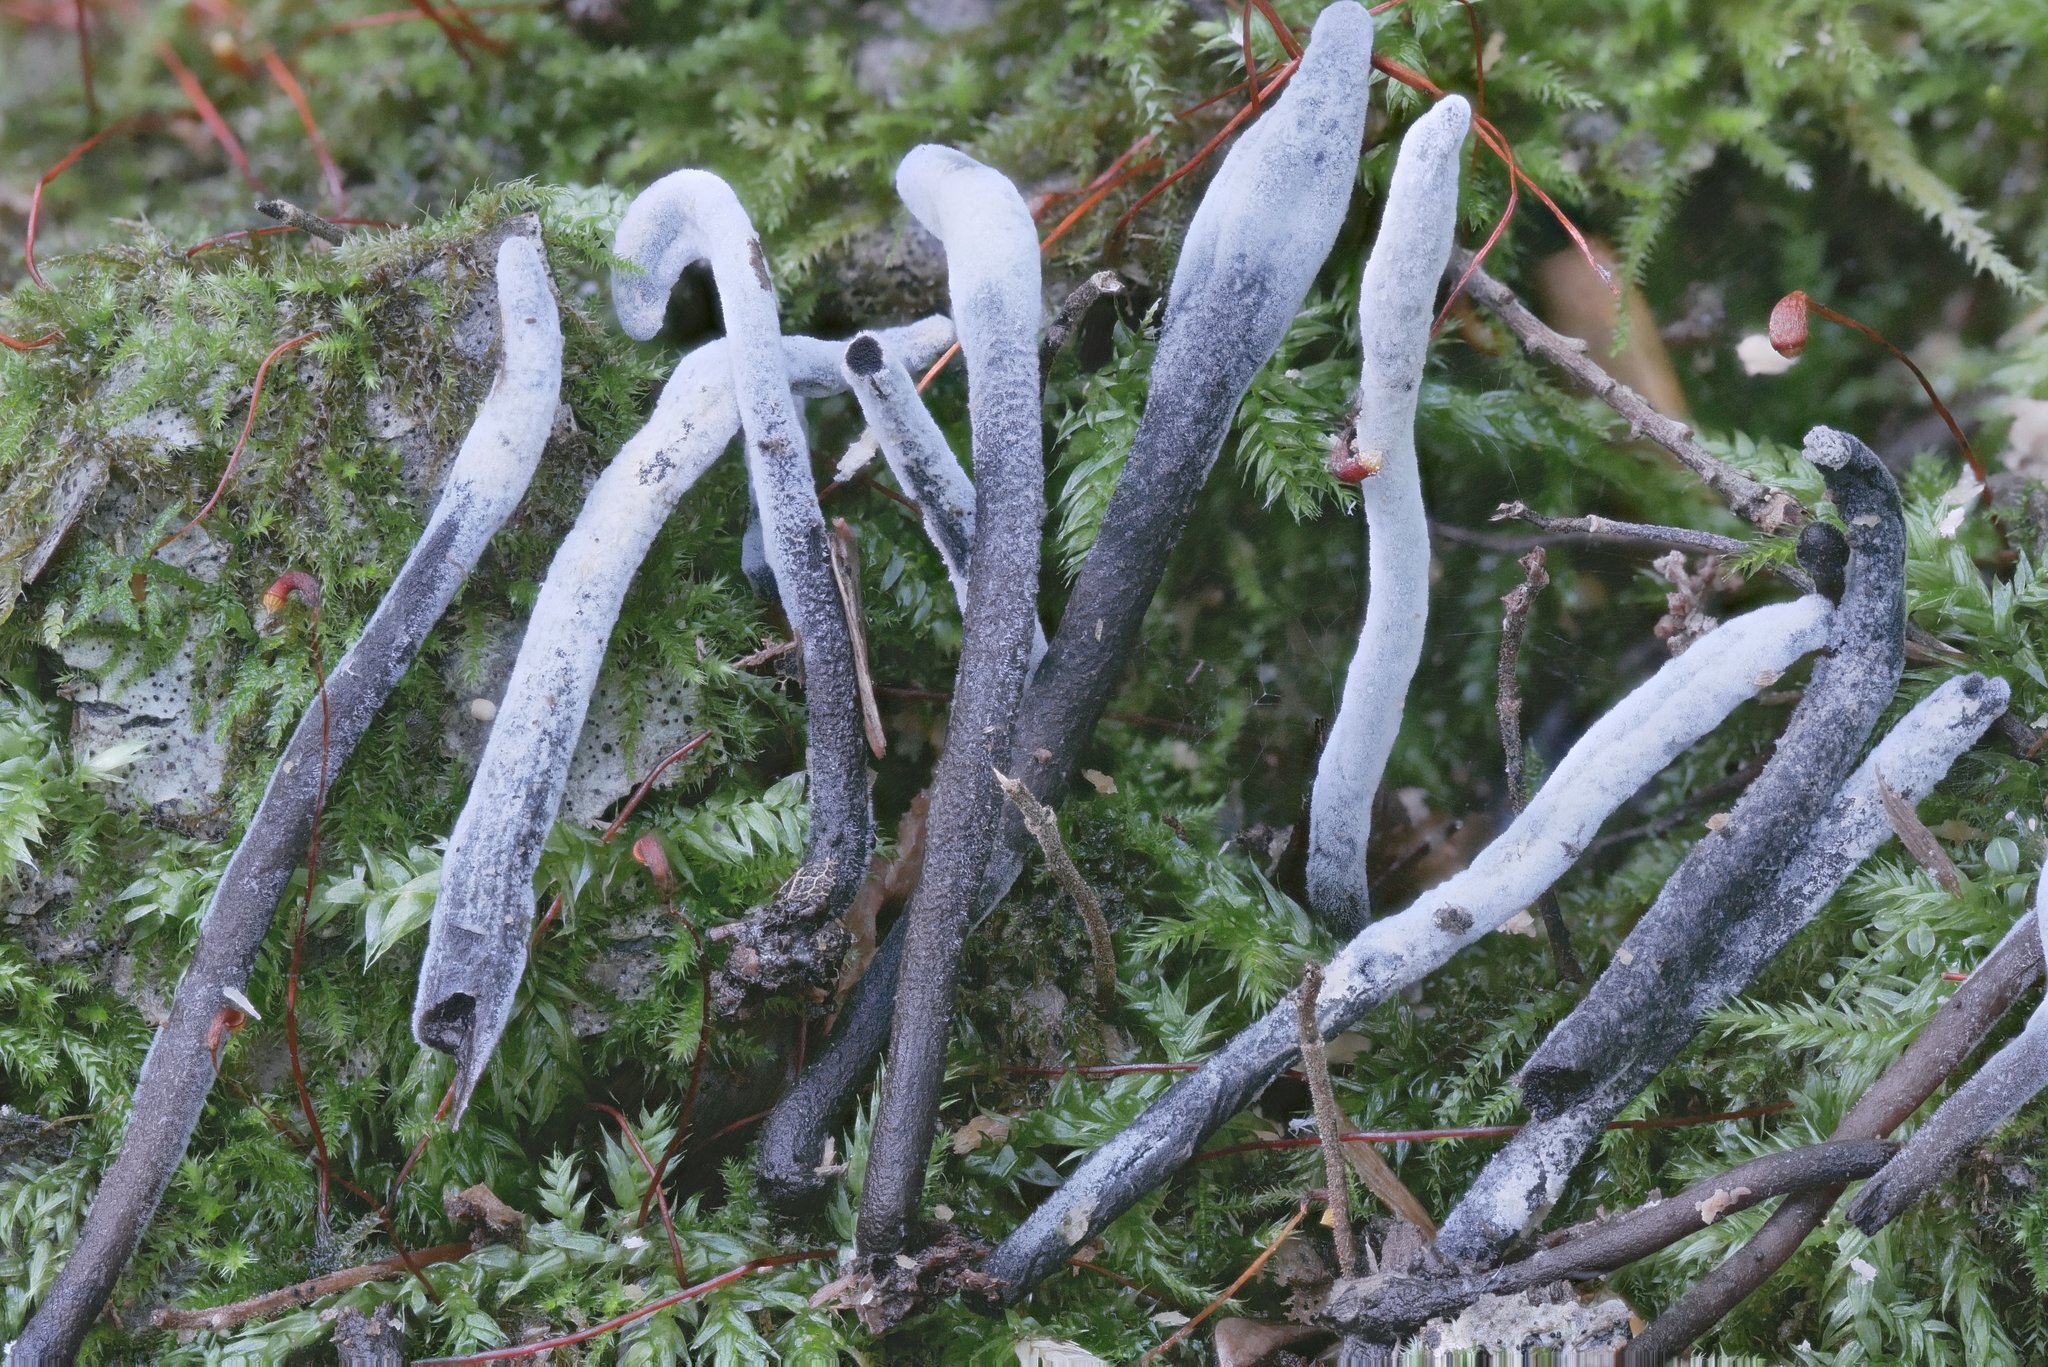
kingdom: Fungi
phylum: Ascomycota
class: Sordariomycetes
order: Hypocreales
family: Hypocreaceae
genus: Hypomyces
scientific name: Hypomyces papulasporae
